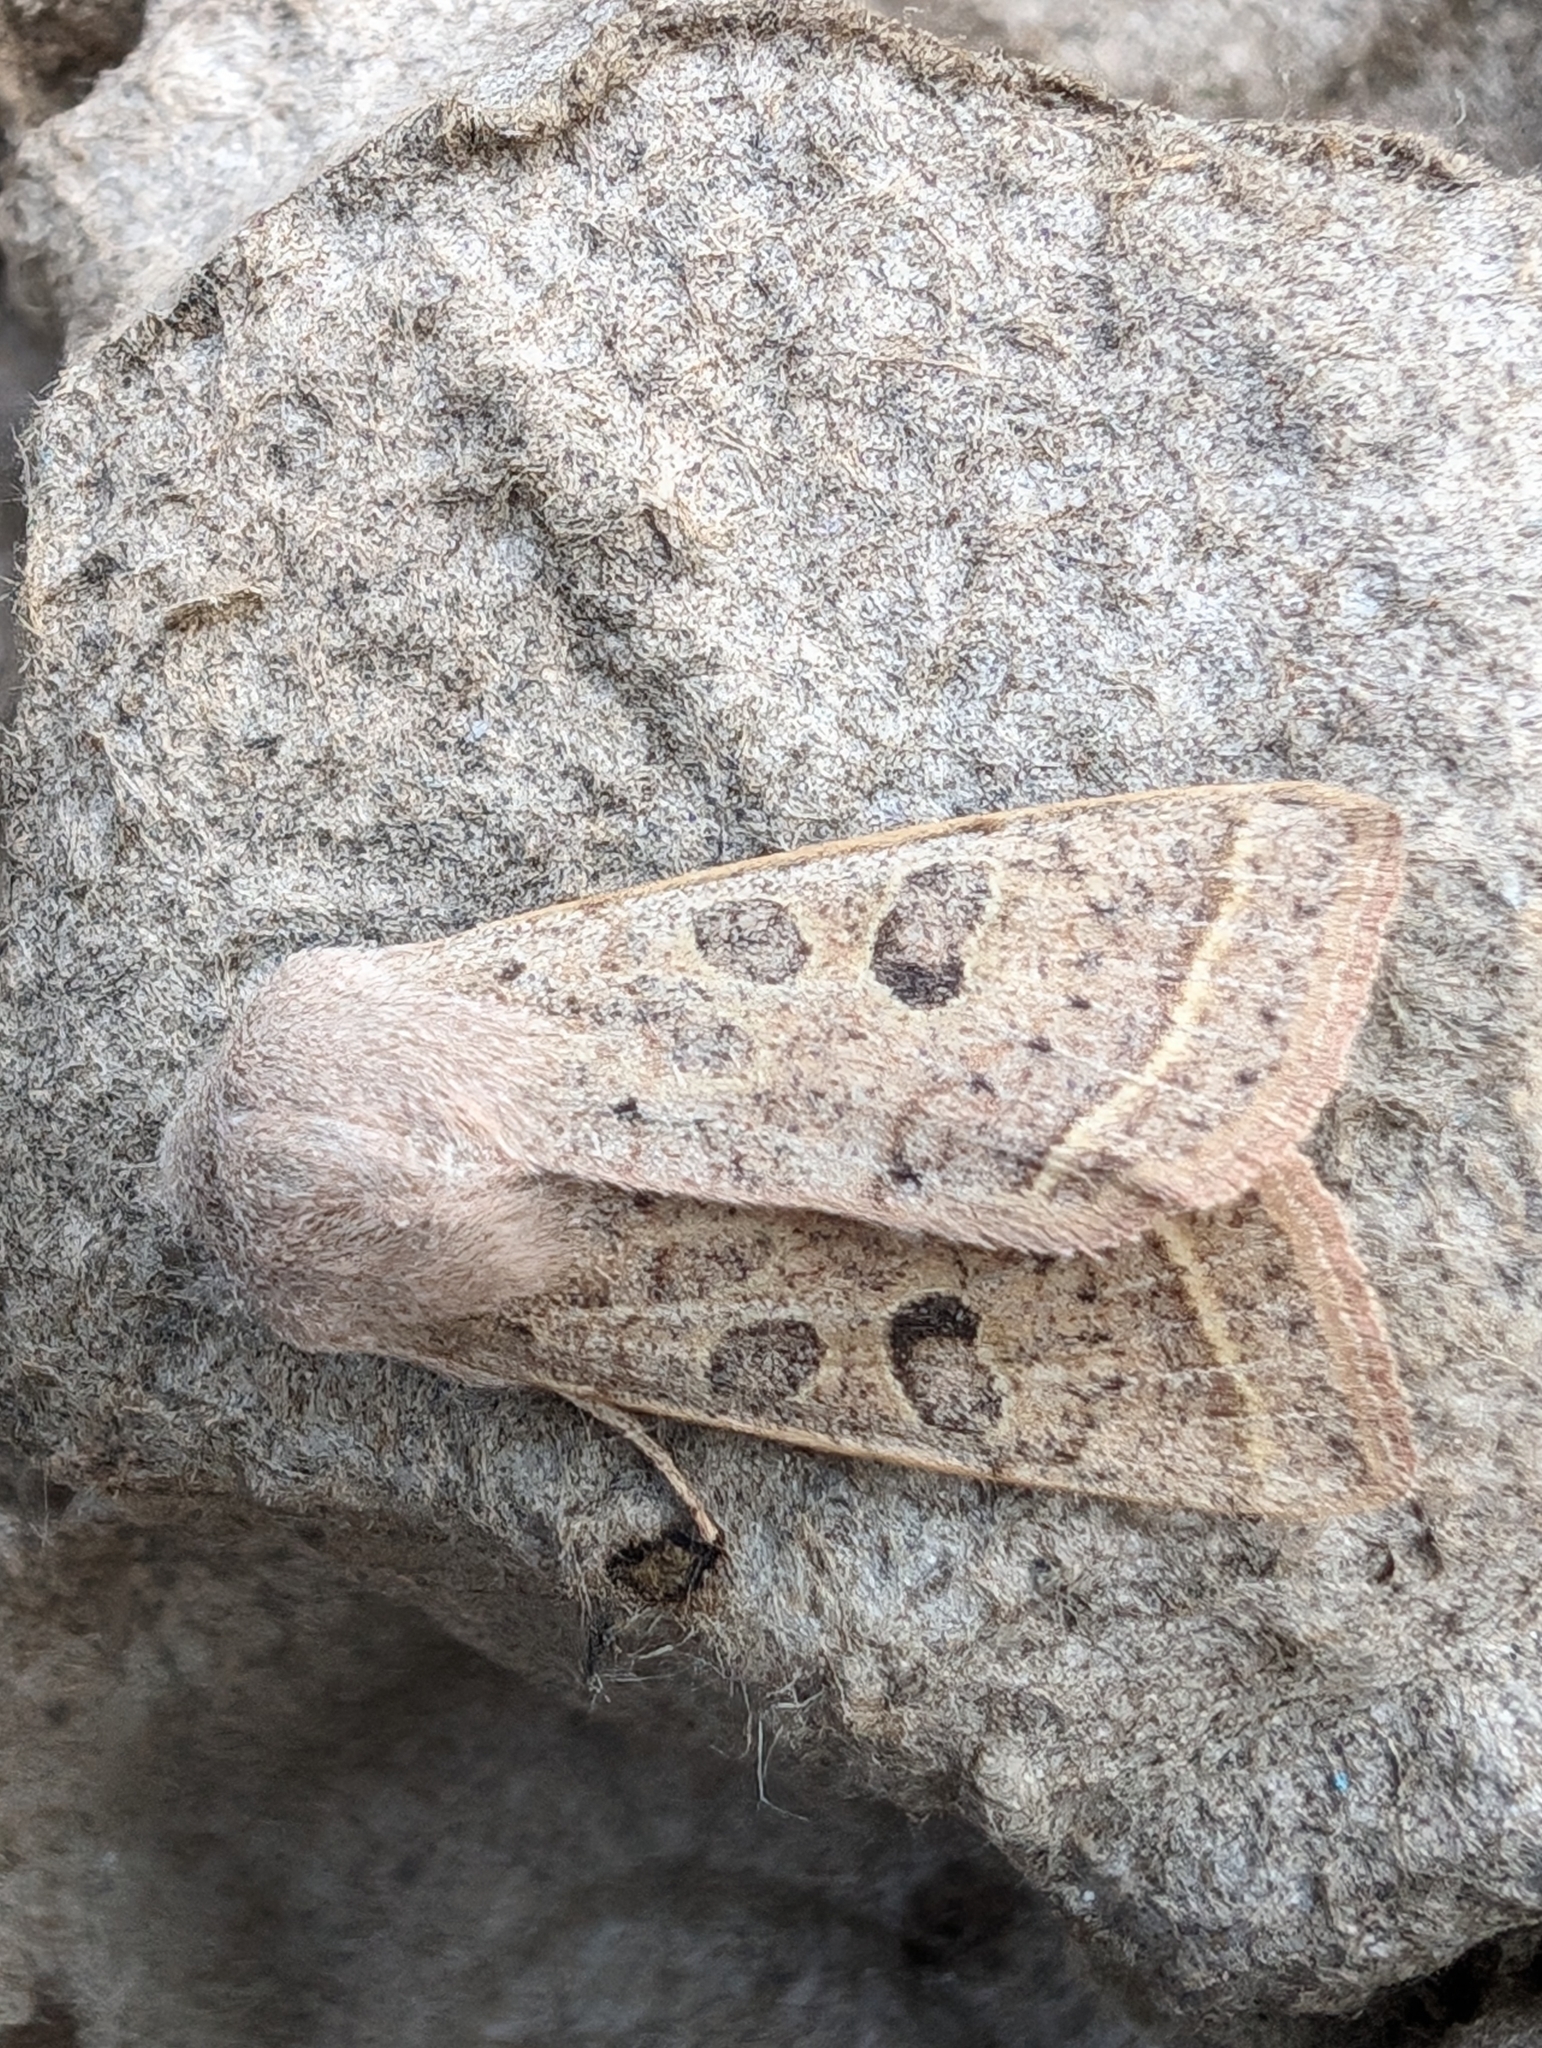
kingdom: Animalia
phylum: Arthropoda
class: Insecta
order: Lepidoptera
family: Noctuidae
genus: Orthosia
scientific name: Orthosia gracilis
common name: Powdered quaker
